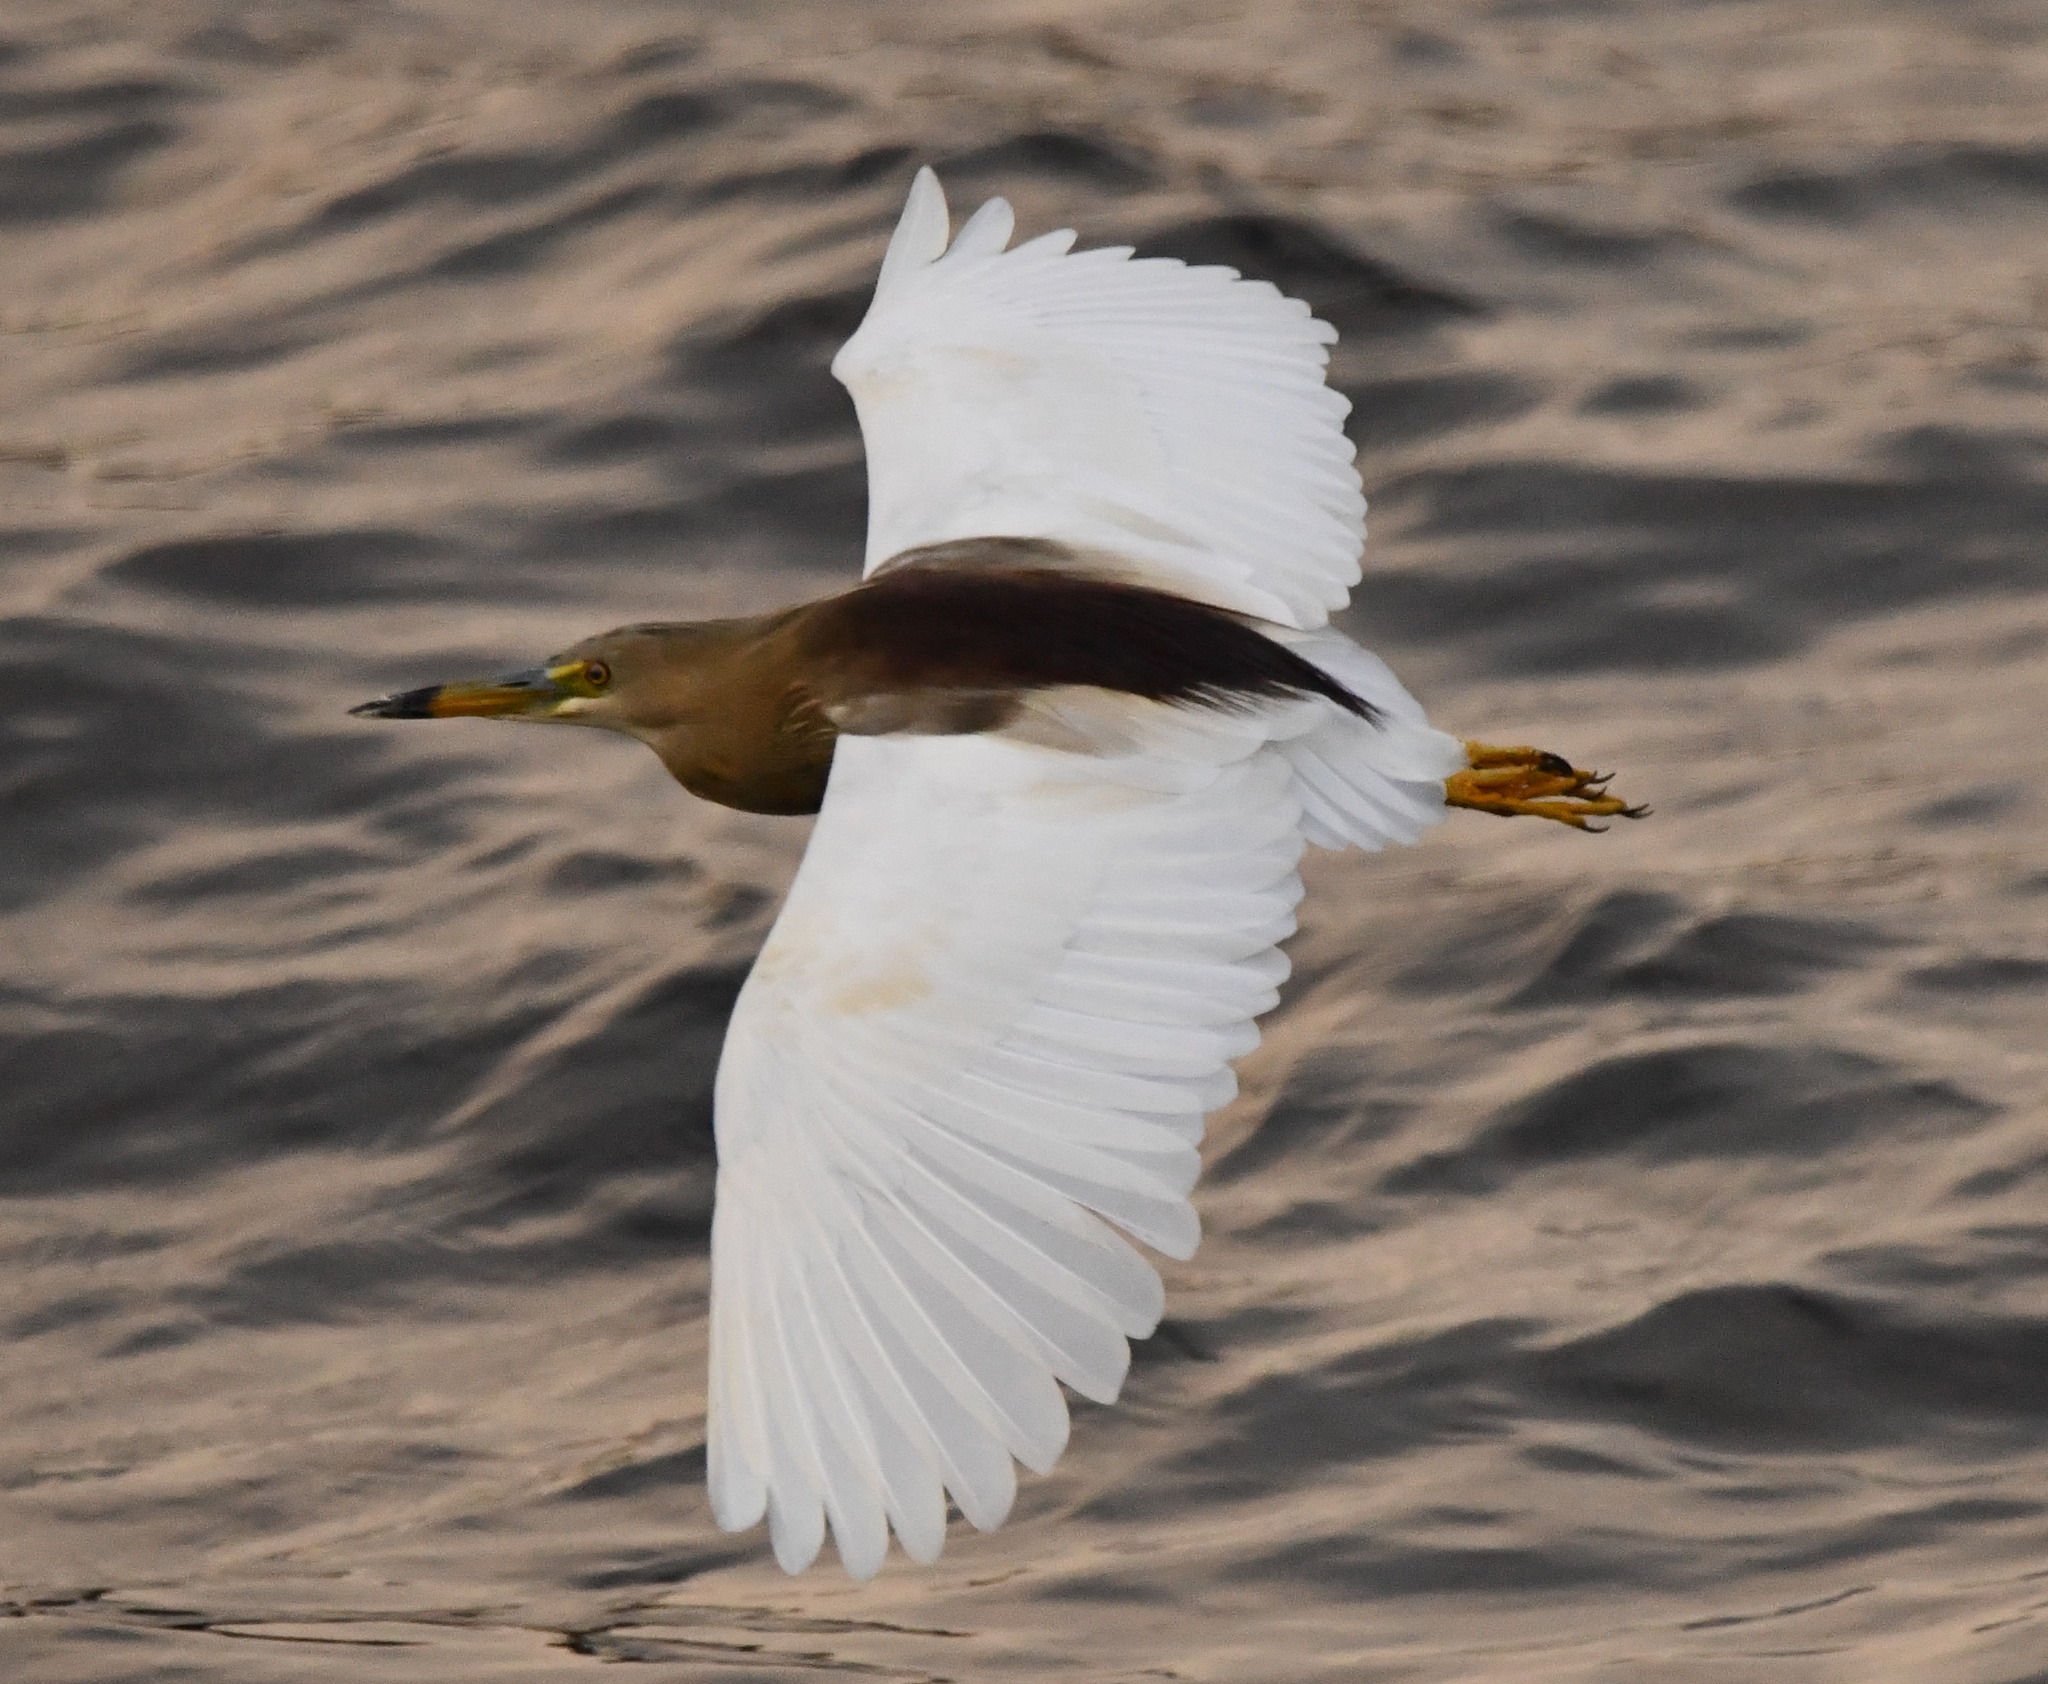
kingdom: Animalia
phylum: Chordata
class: Aves
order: Pelecaniformes
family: Ardeidae
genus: Ardeola
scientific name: Ardeola grayii
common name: Indian pond heron
